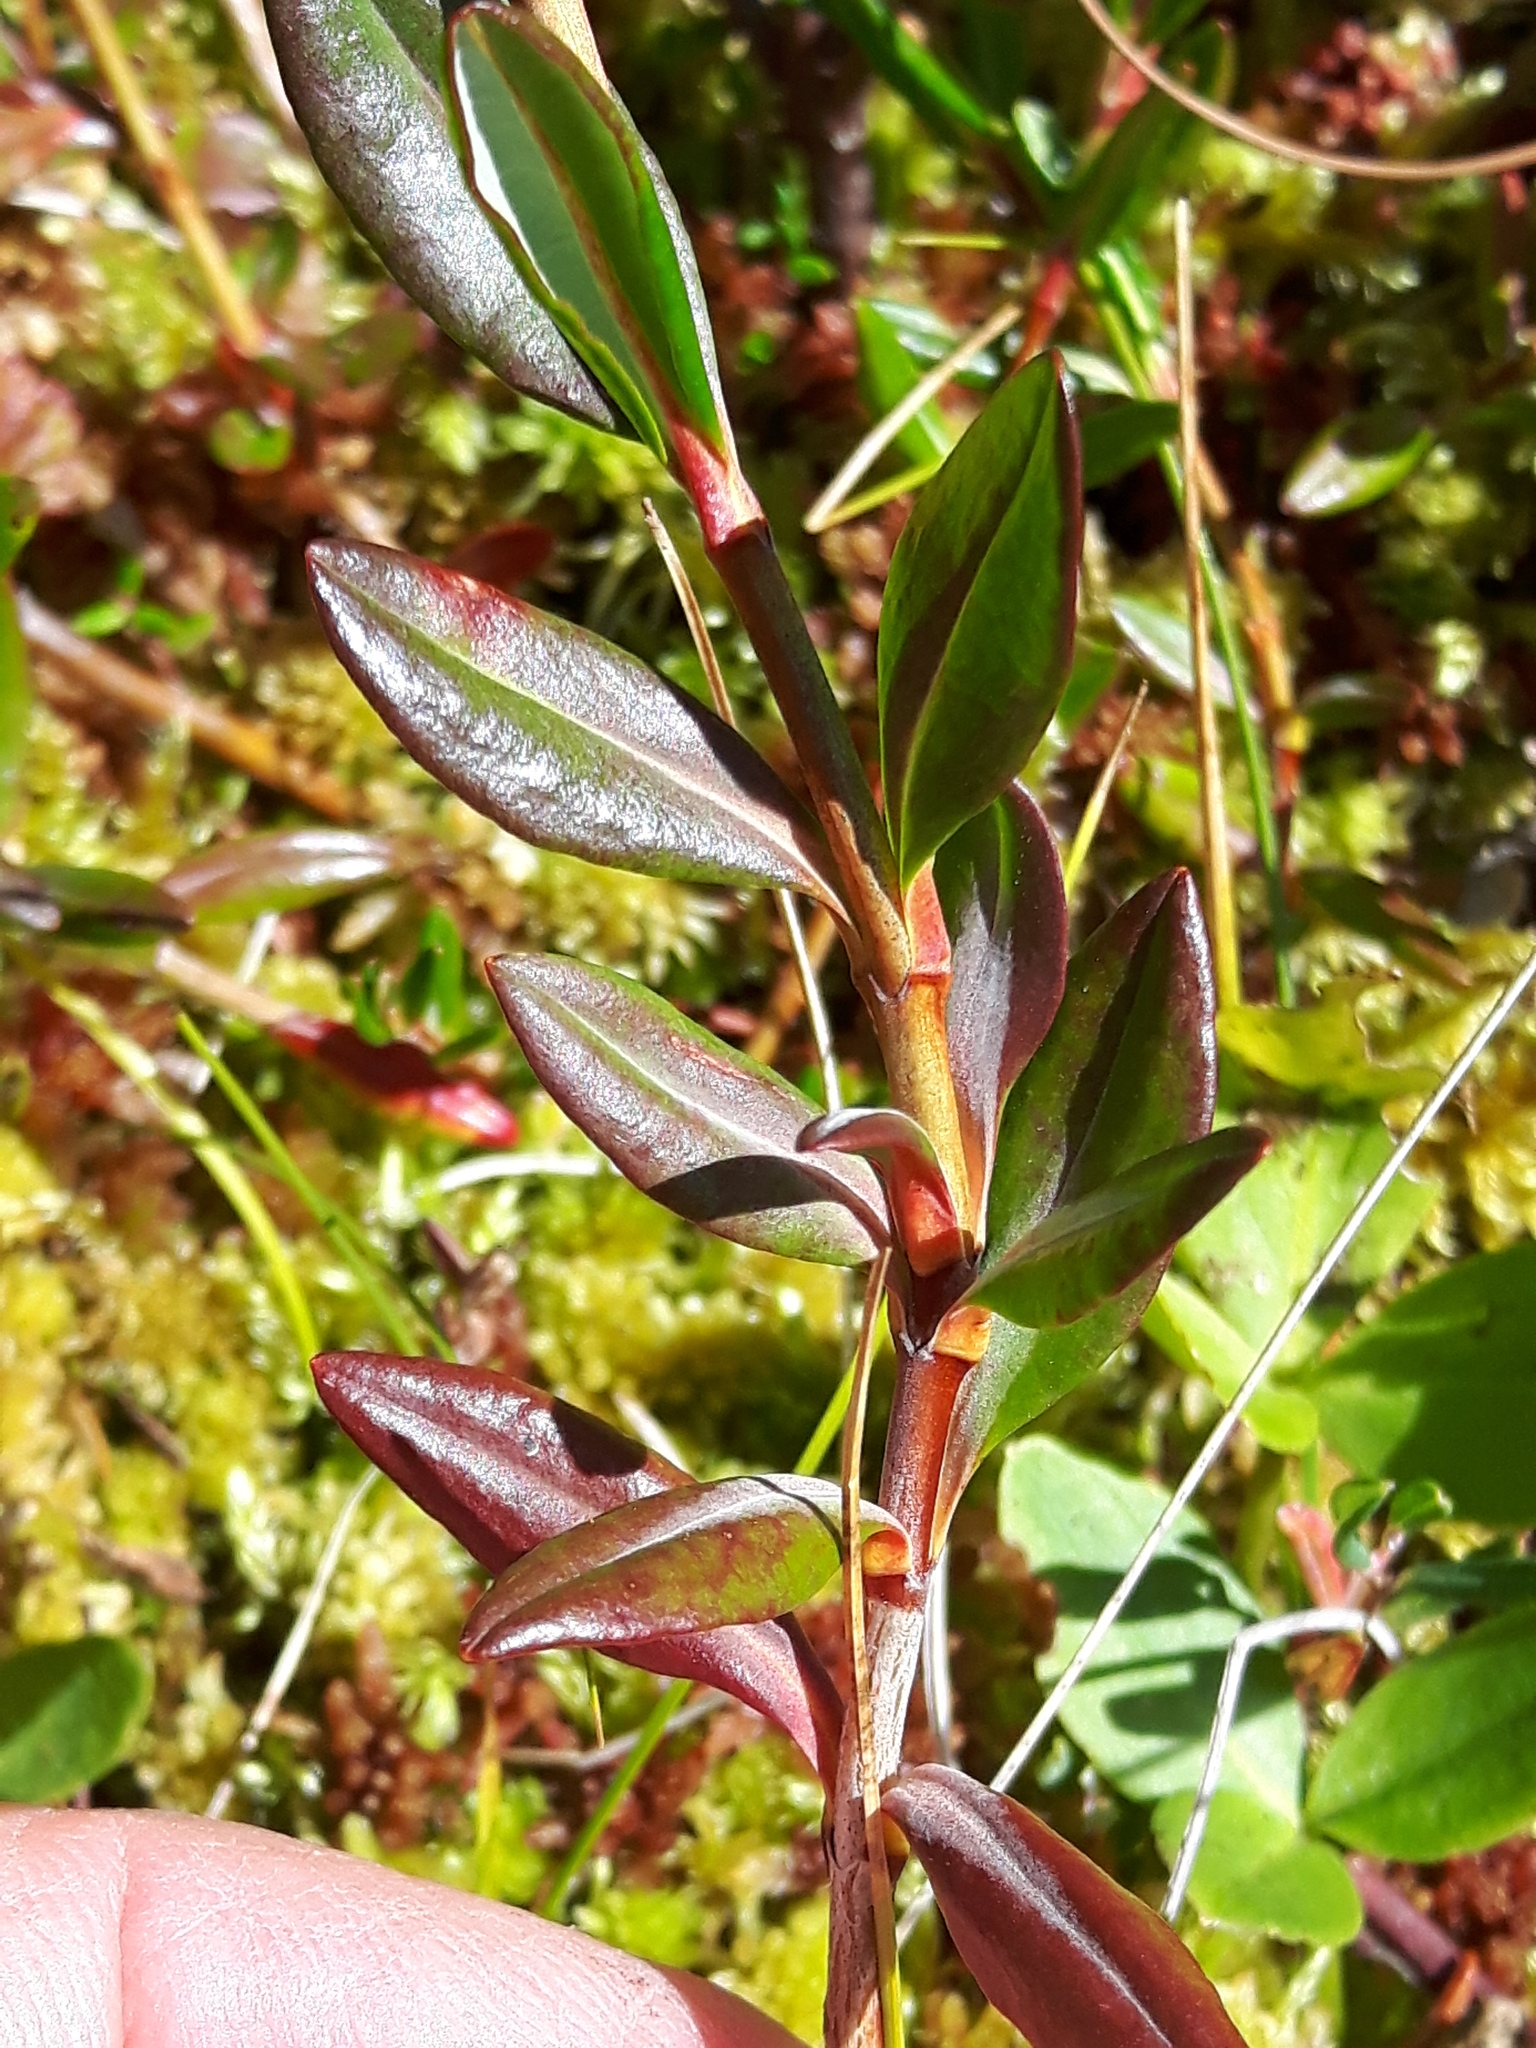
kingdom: Plantae
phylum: Tracheophyta
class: Magnoliopsida
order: Ericales
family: Ericaceae
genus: Kalmia
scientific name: Kalmia microphylla
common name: Alpine bog laurel
